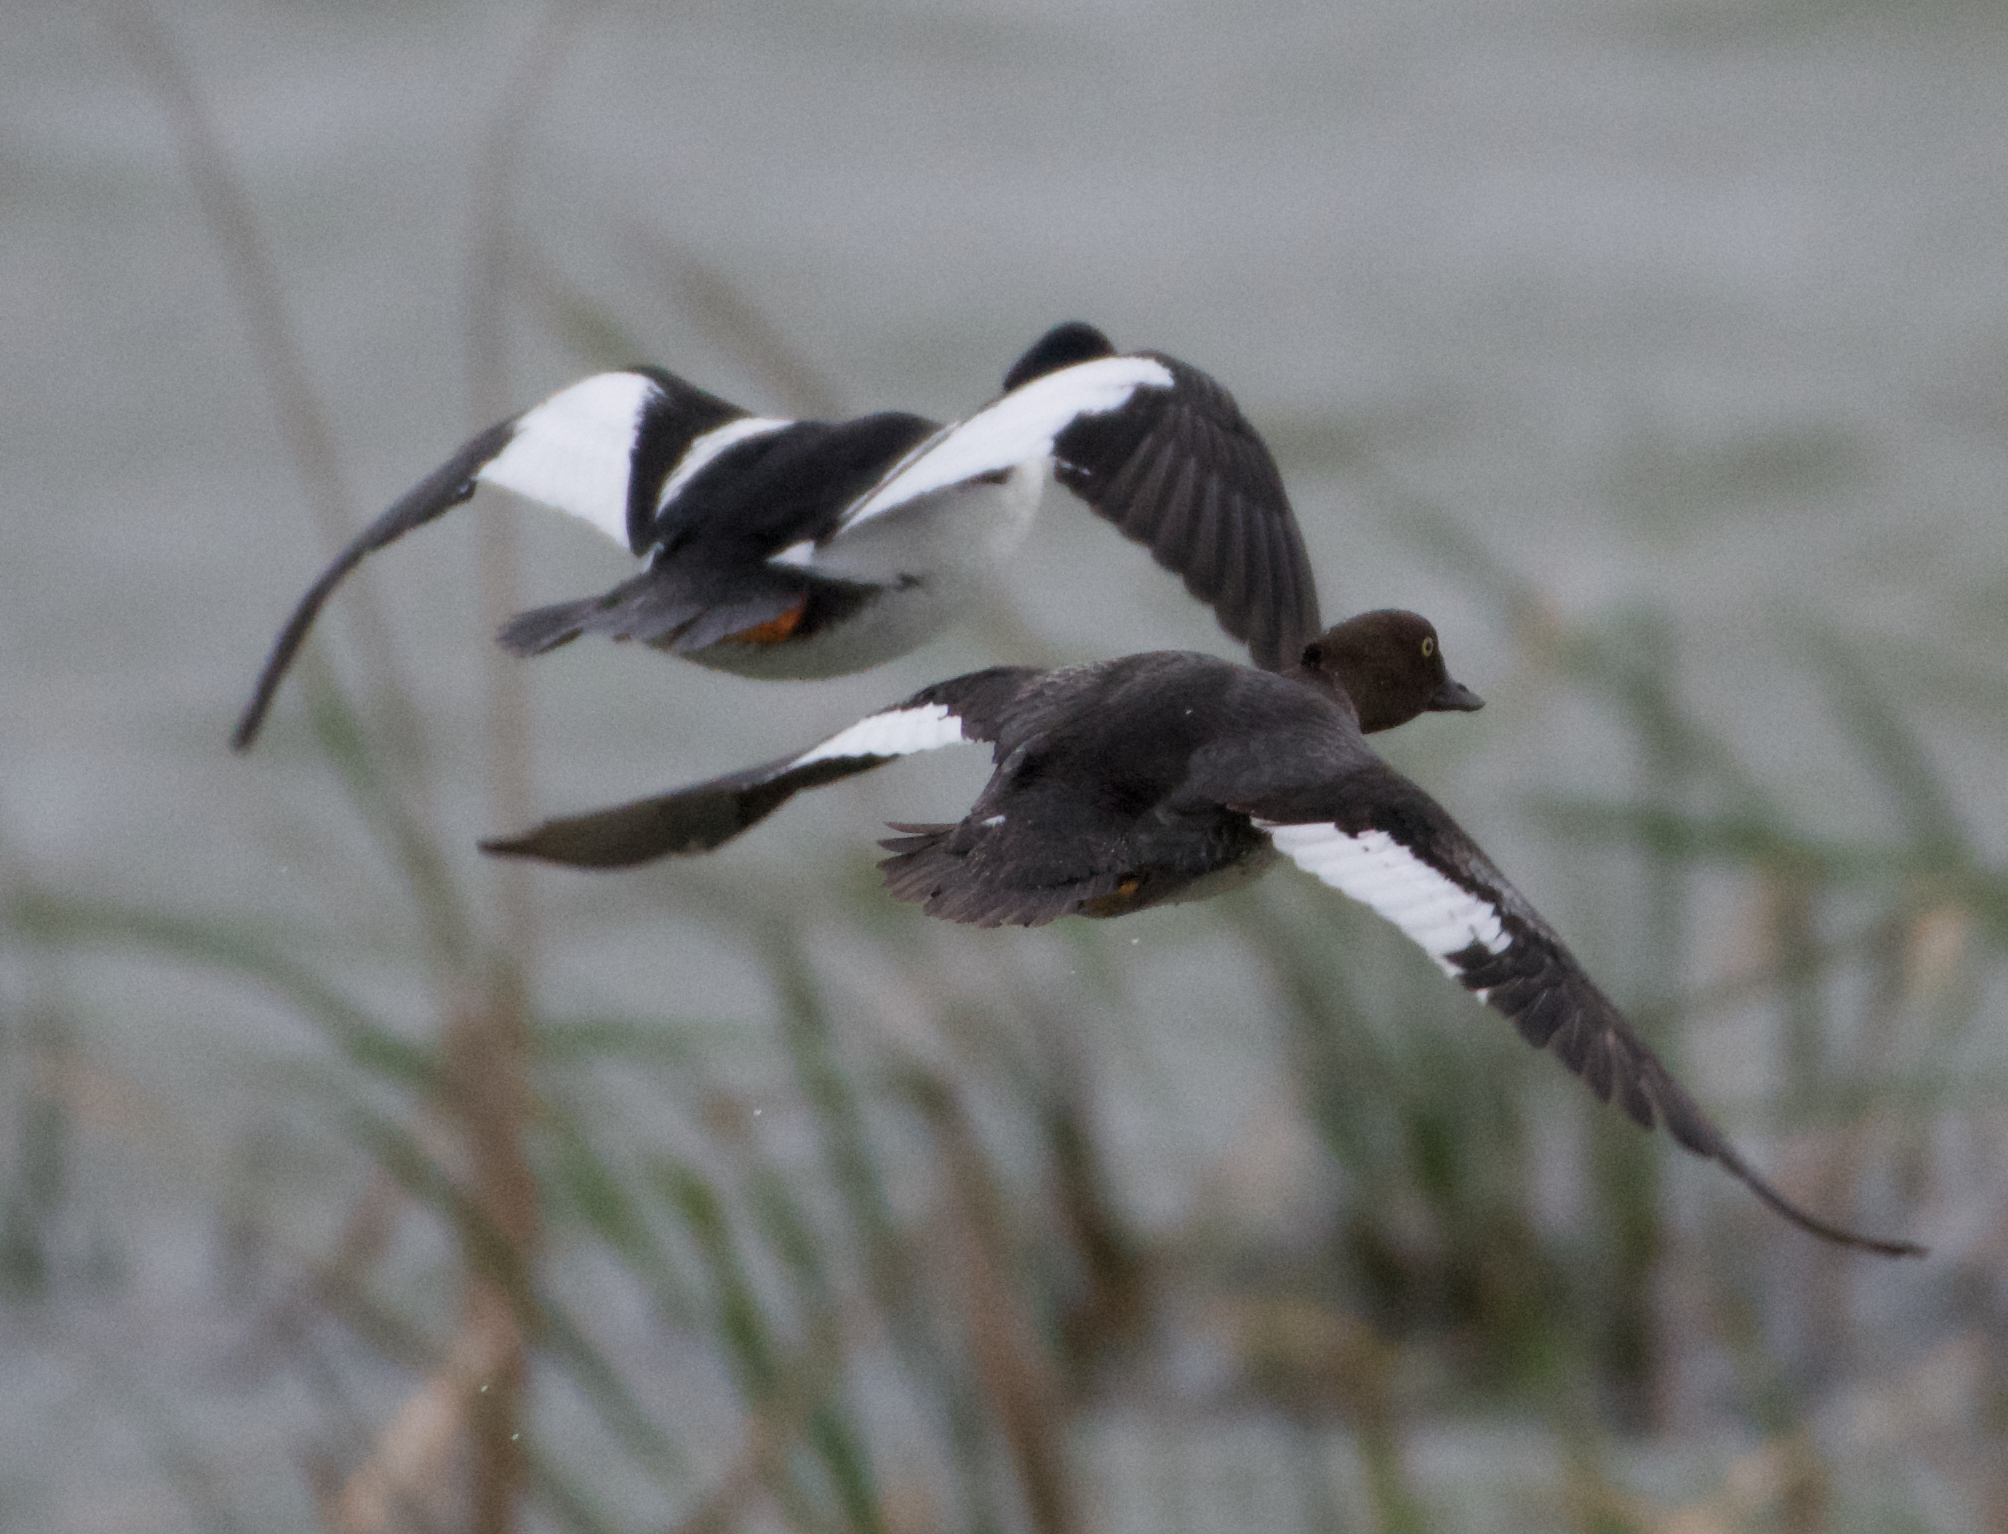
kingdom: Animalia
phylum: Chordata
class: Aves
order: Anseriformes
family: Anatidae
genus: Bucephala
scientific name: Bucephala clangula
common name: Common goldeneye
